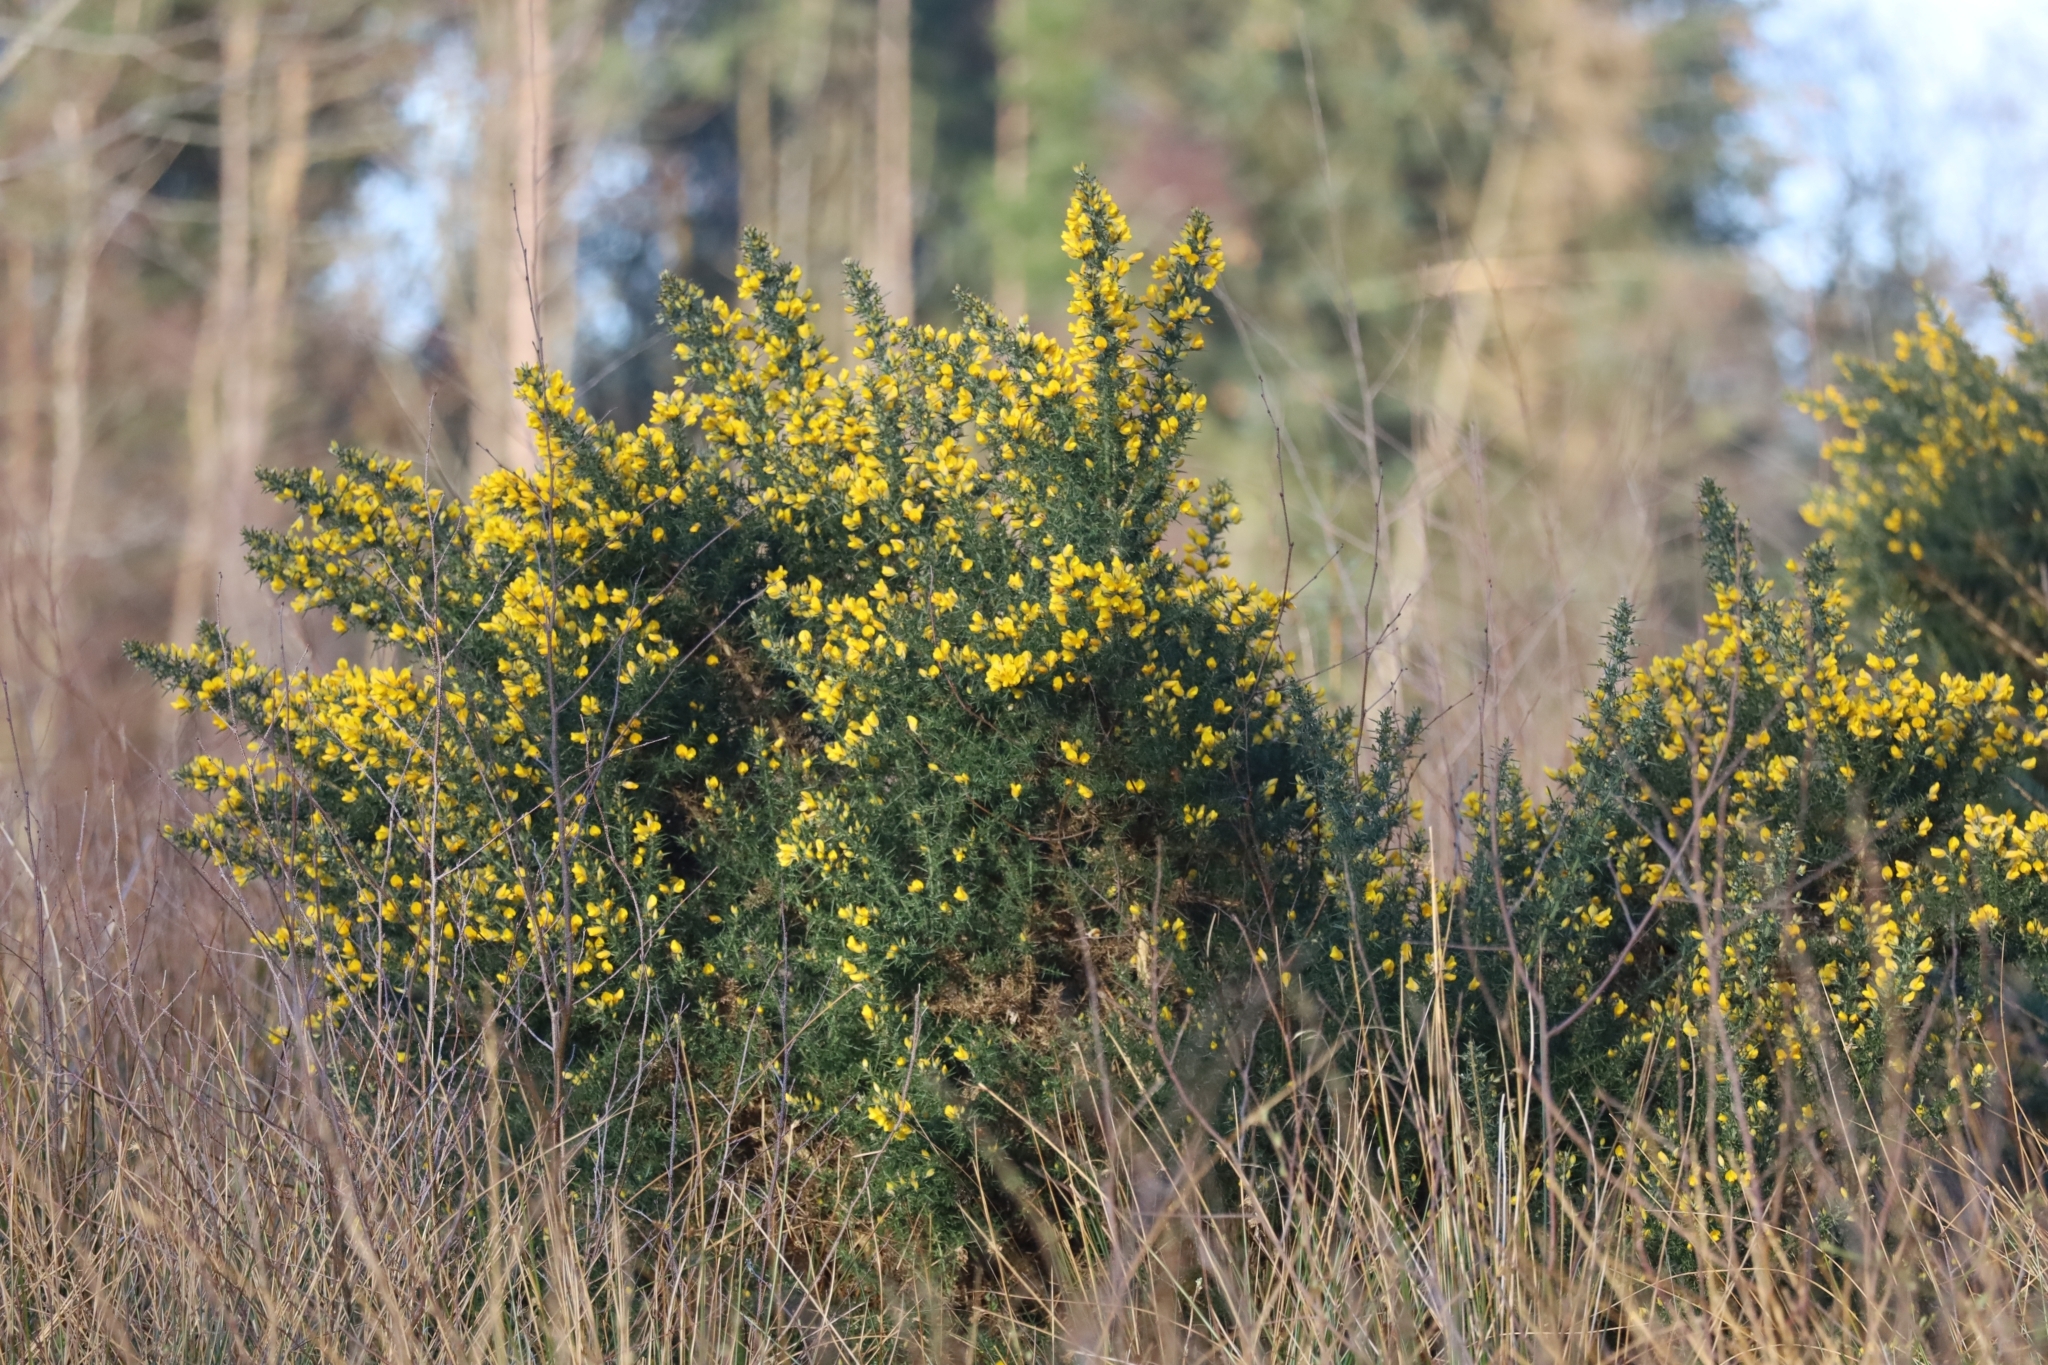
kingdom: Plantae
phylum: Tracheophyta
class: Magnoliopsida
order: Fabales
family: Fabaceae
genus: Ulex
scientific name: Ulex europaeus
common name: Common gorse
